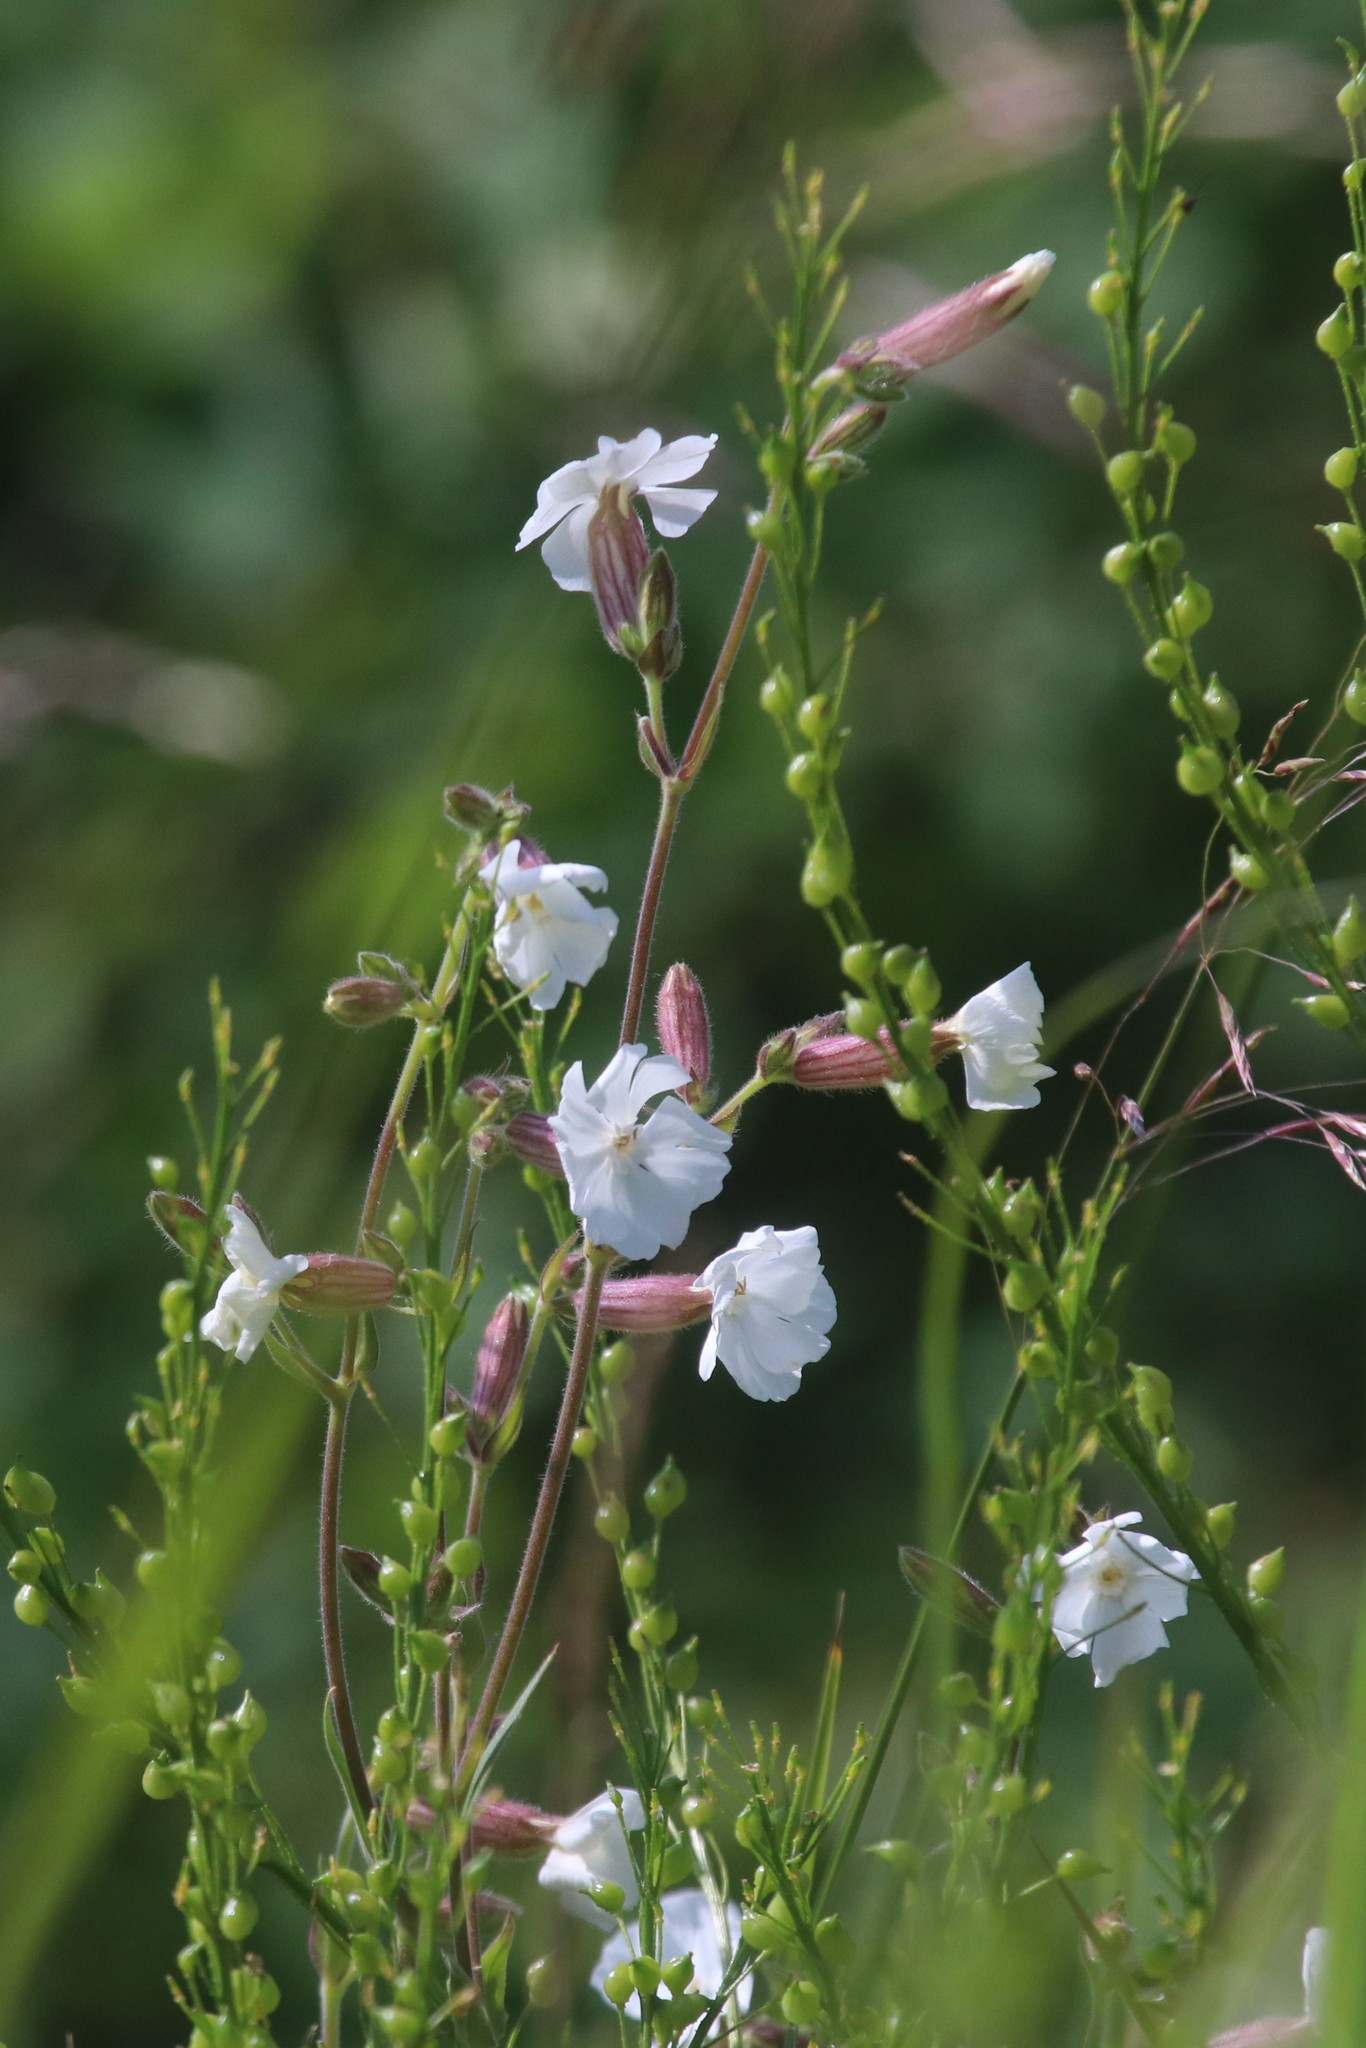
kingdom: Plantae
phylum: Tracheophyta
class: Magnoliopsida
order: Caryophyllales
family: Caryophyllaceae
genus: Silene
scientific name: Silene latifolia
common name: White campion
